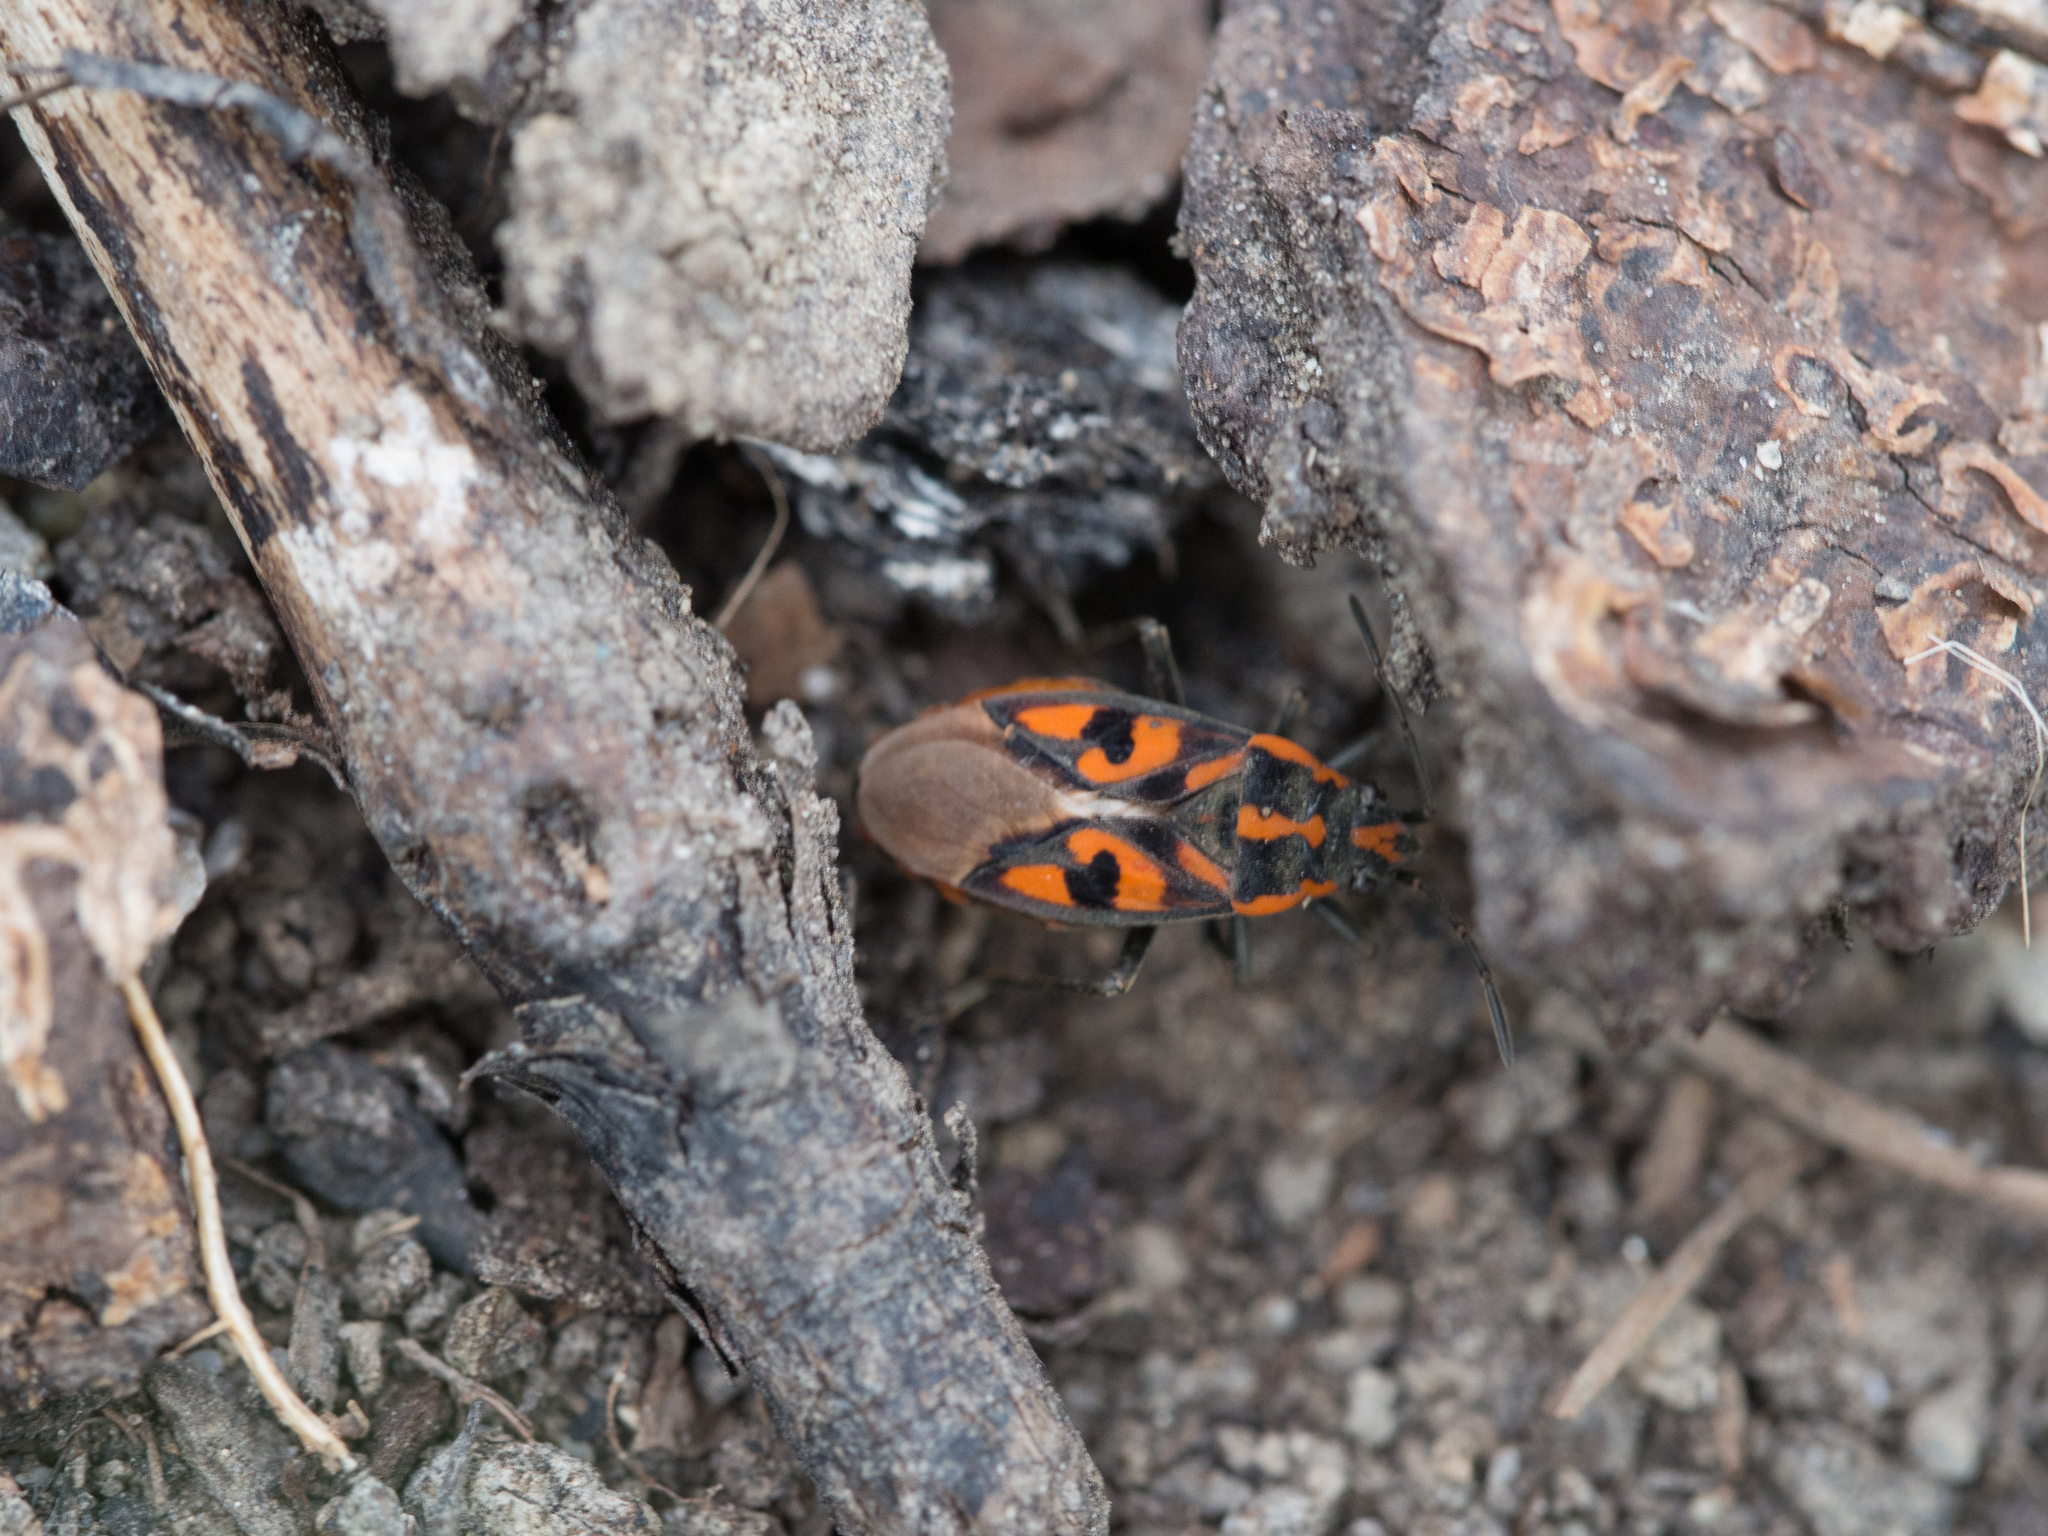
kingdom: Animalia
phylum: Arthropoda
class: Insecta
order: Hemiptera
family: Lygaeidae
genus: Spilostethus
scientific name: Spilostethus saxatilis
